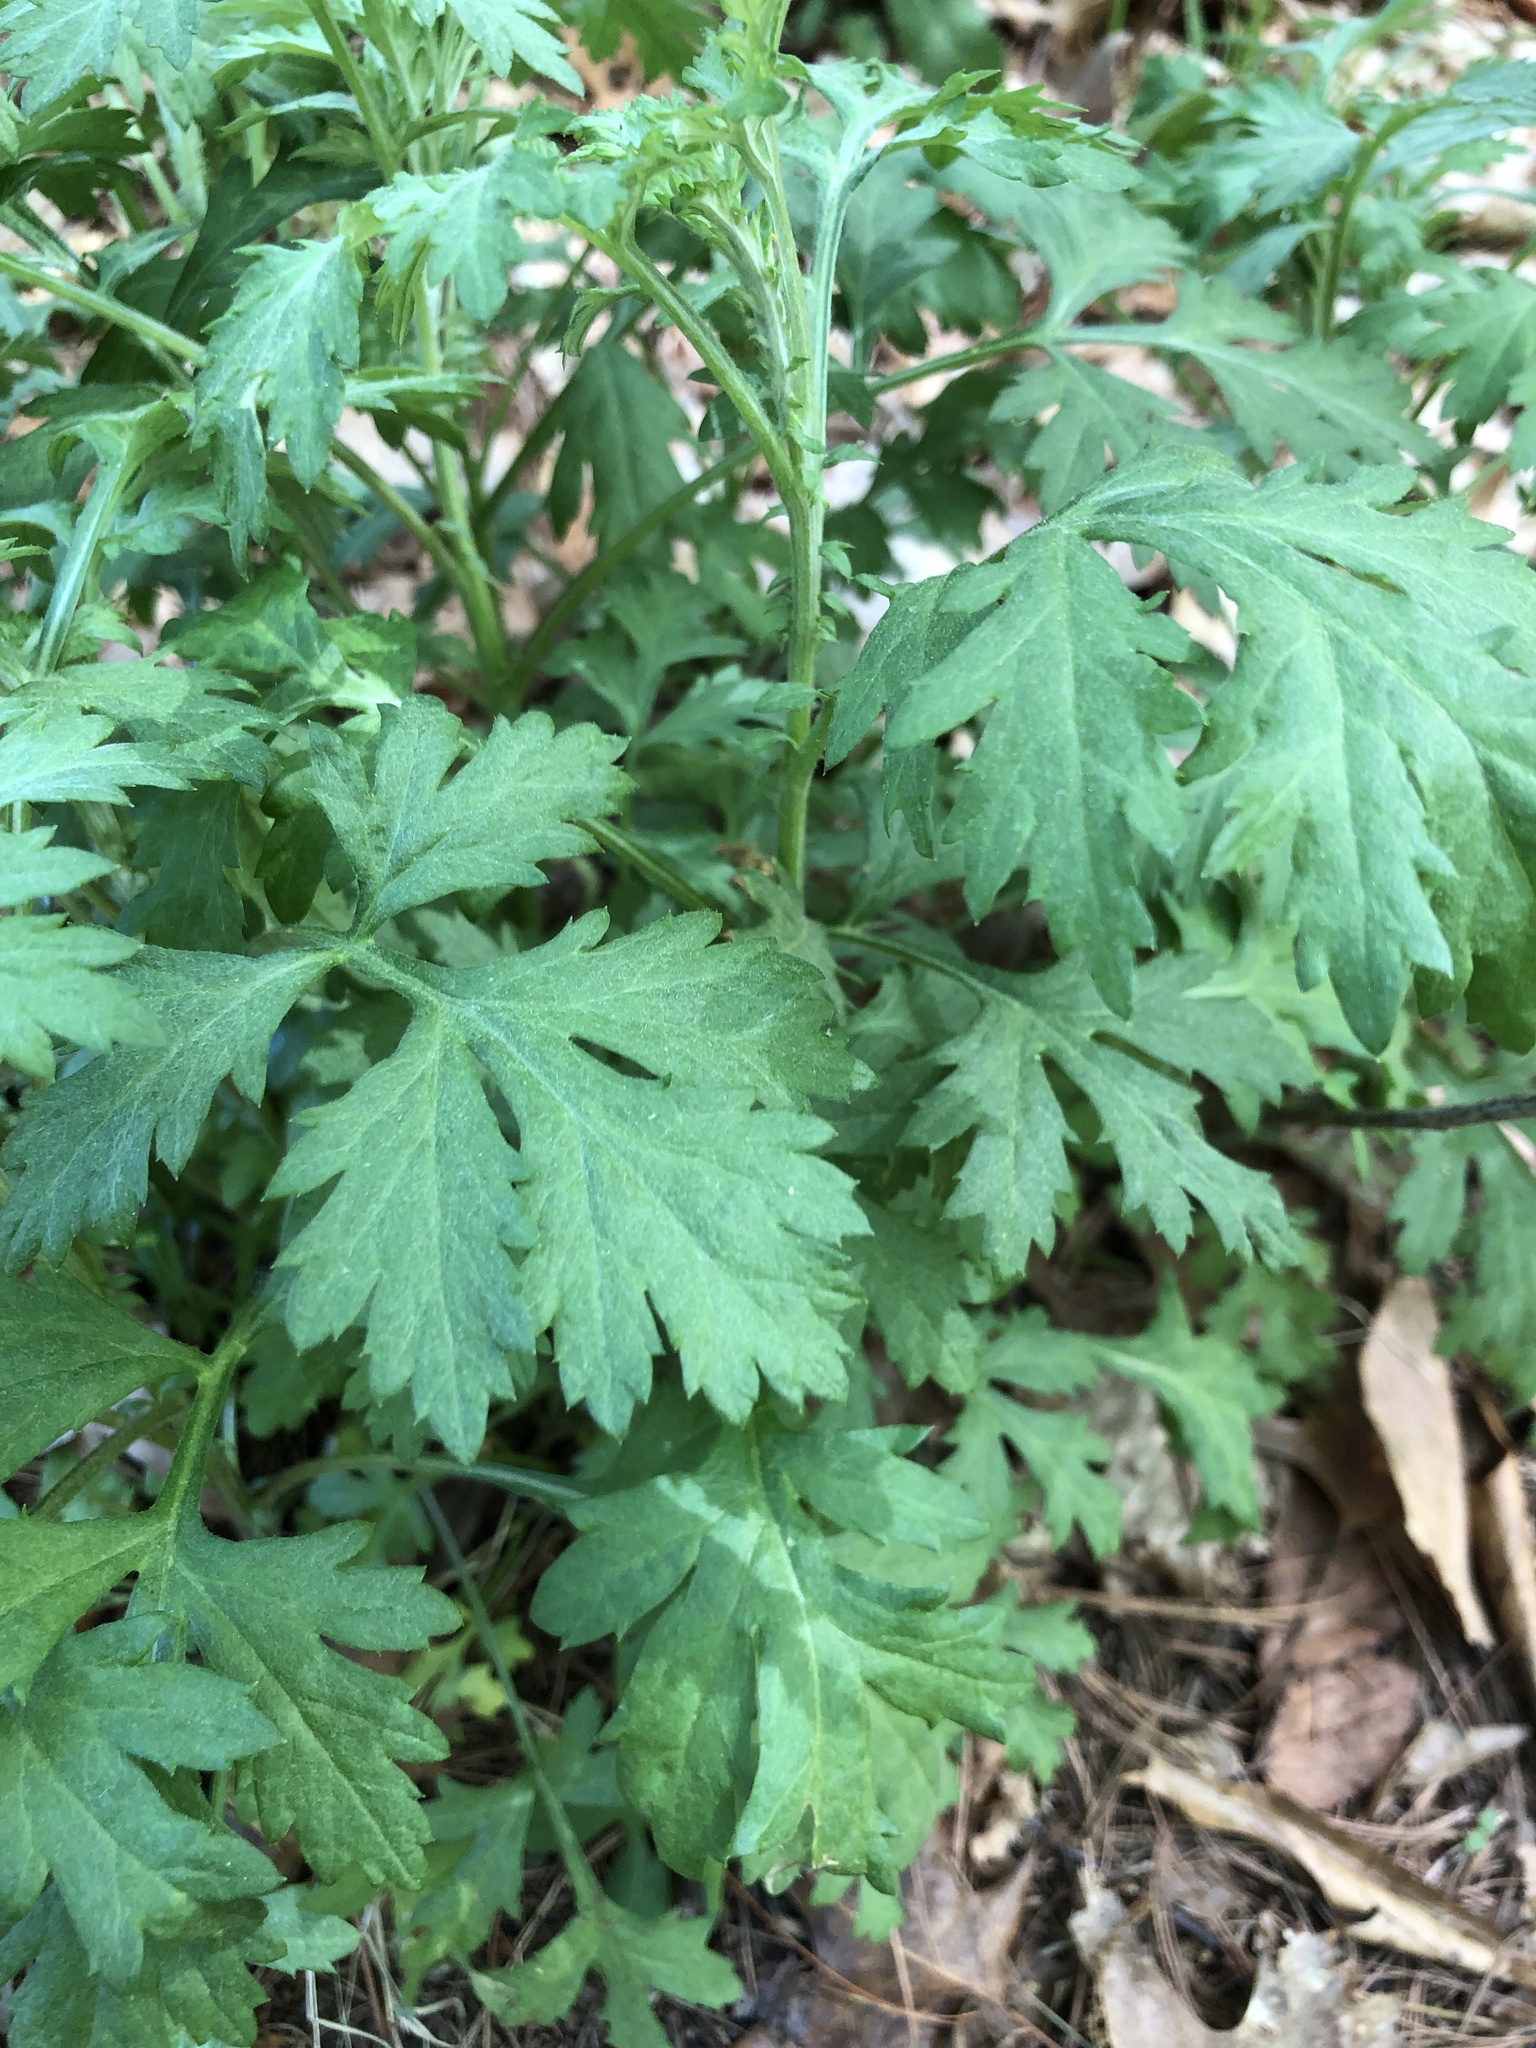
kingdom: Plantae
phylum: Tracheophyta
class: Magnoliopsida
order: Asterales
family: Asteraceae
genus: Artemisia
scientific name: Artemisia vulgaris
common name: Mugwort
